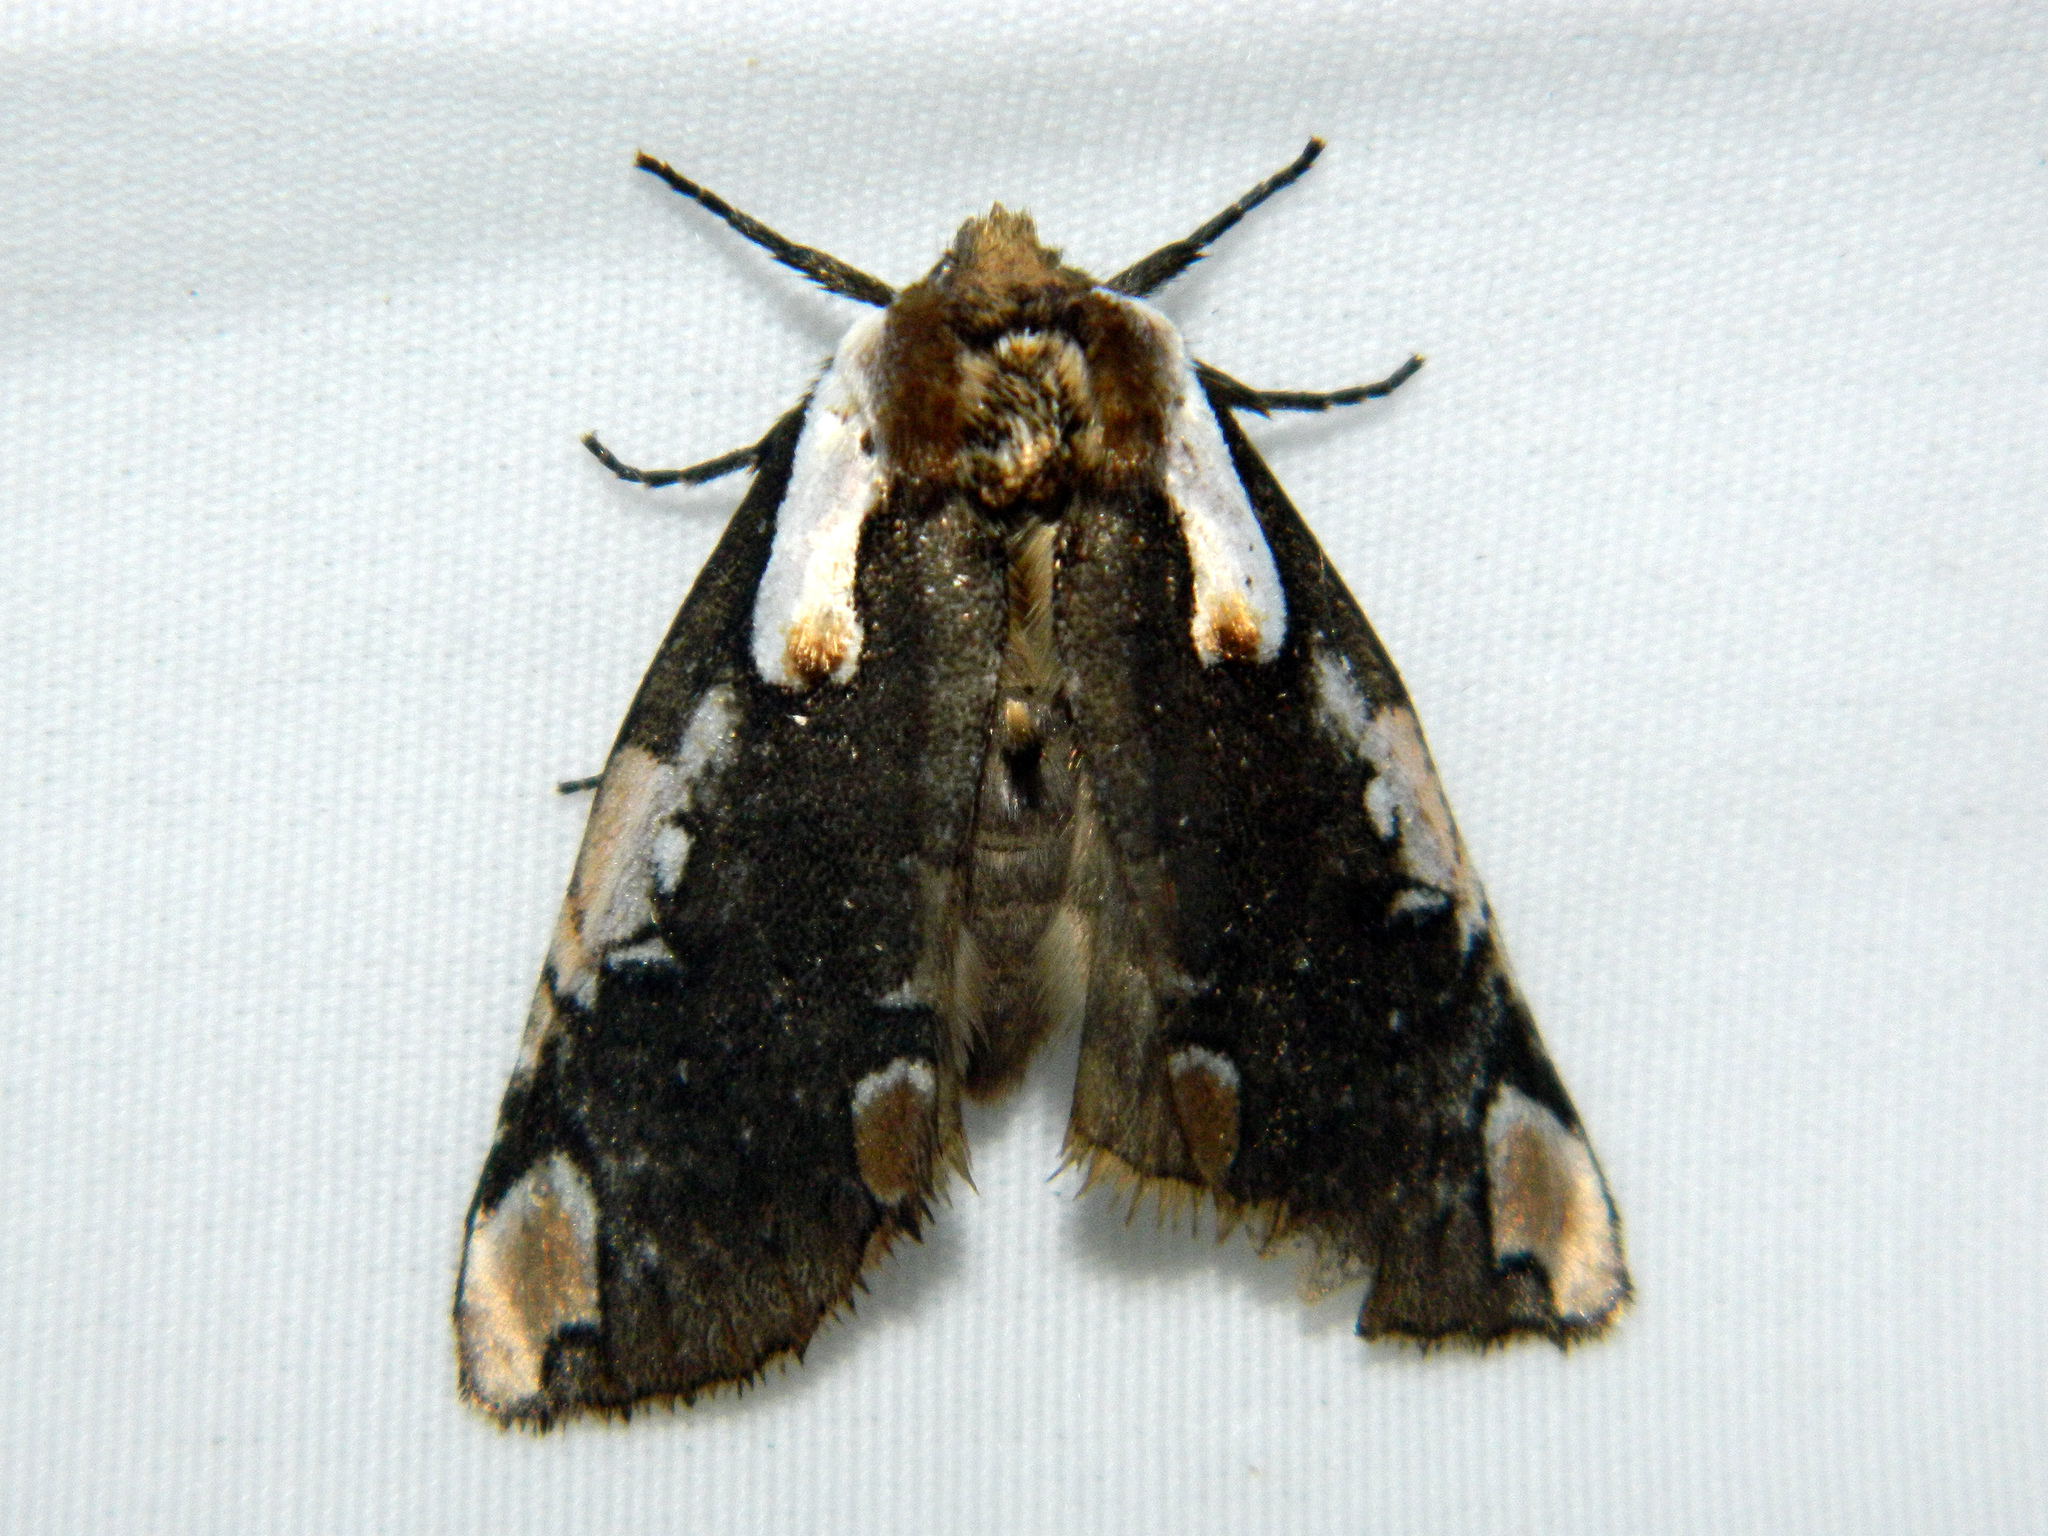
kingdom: Animalia
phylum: Arthropoda
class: Insecta
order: Lepidoptera
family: Drepanidae
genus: Euthyatira
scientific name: Euthyatira pudens
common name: Dogwood thyatirid moth
